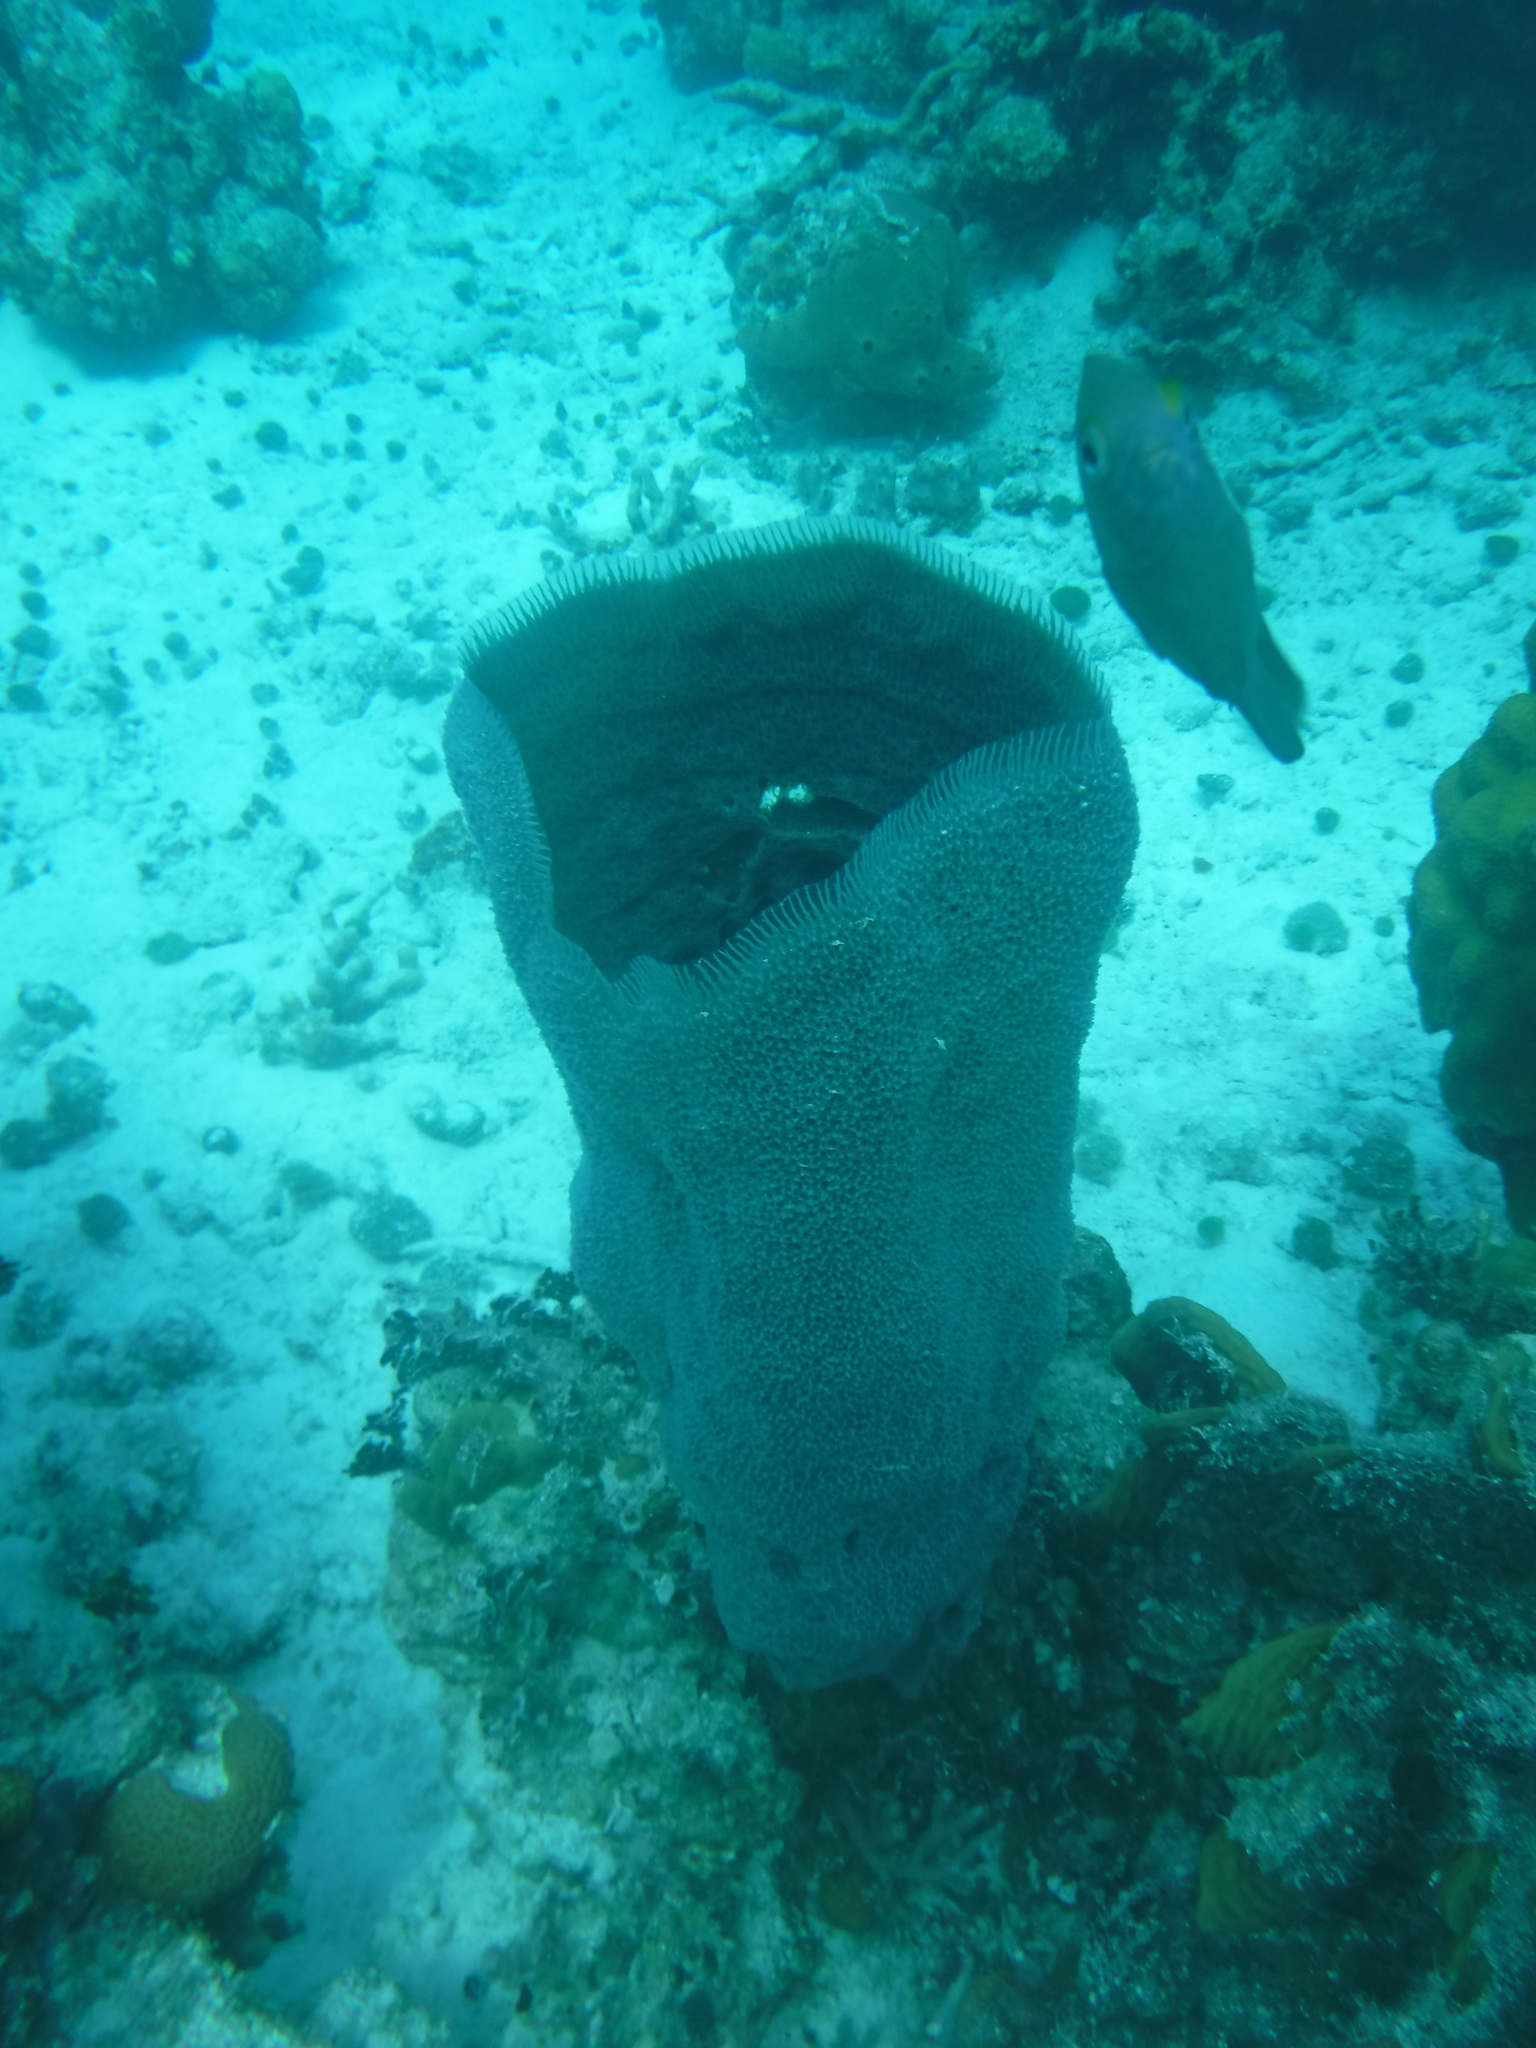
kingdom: Animalia
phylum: Porifera
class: Demospongiae
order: Haplosclerida
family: Niphatidae
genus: Niphates
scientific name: Niphates digitalis
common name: Pink vase sponge
